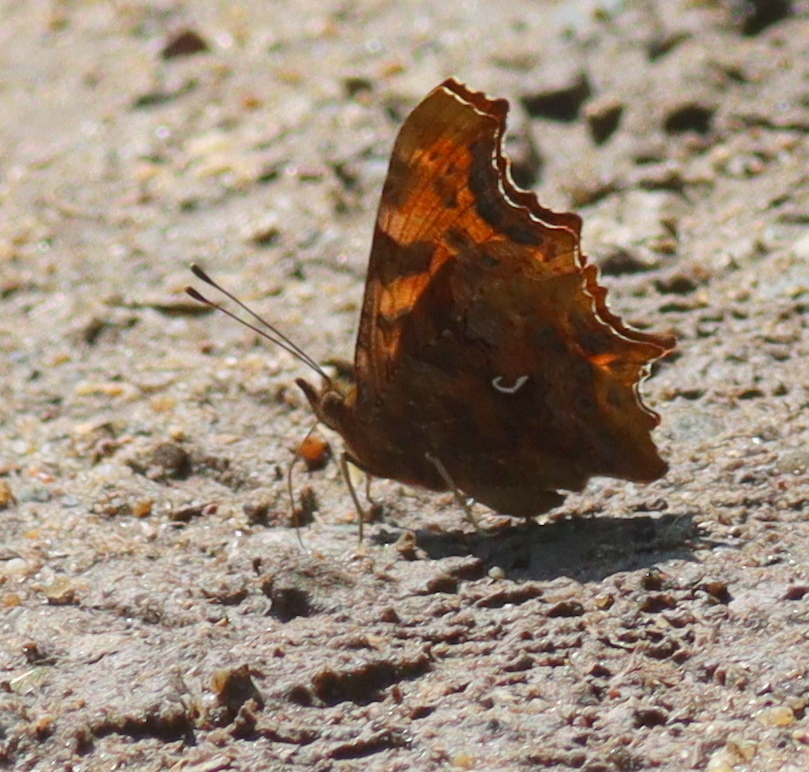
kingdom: Animalia
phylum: Arthropoda
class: Insecta
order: Lepidoptera
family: Nymphalidae
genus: Polygonia
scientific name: Polygonia c-album
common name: Comma
